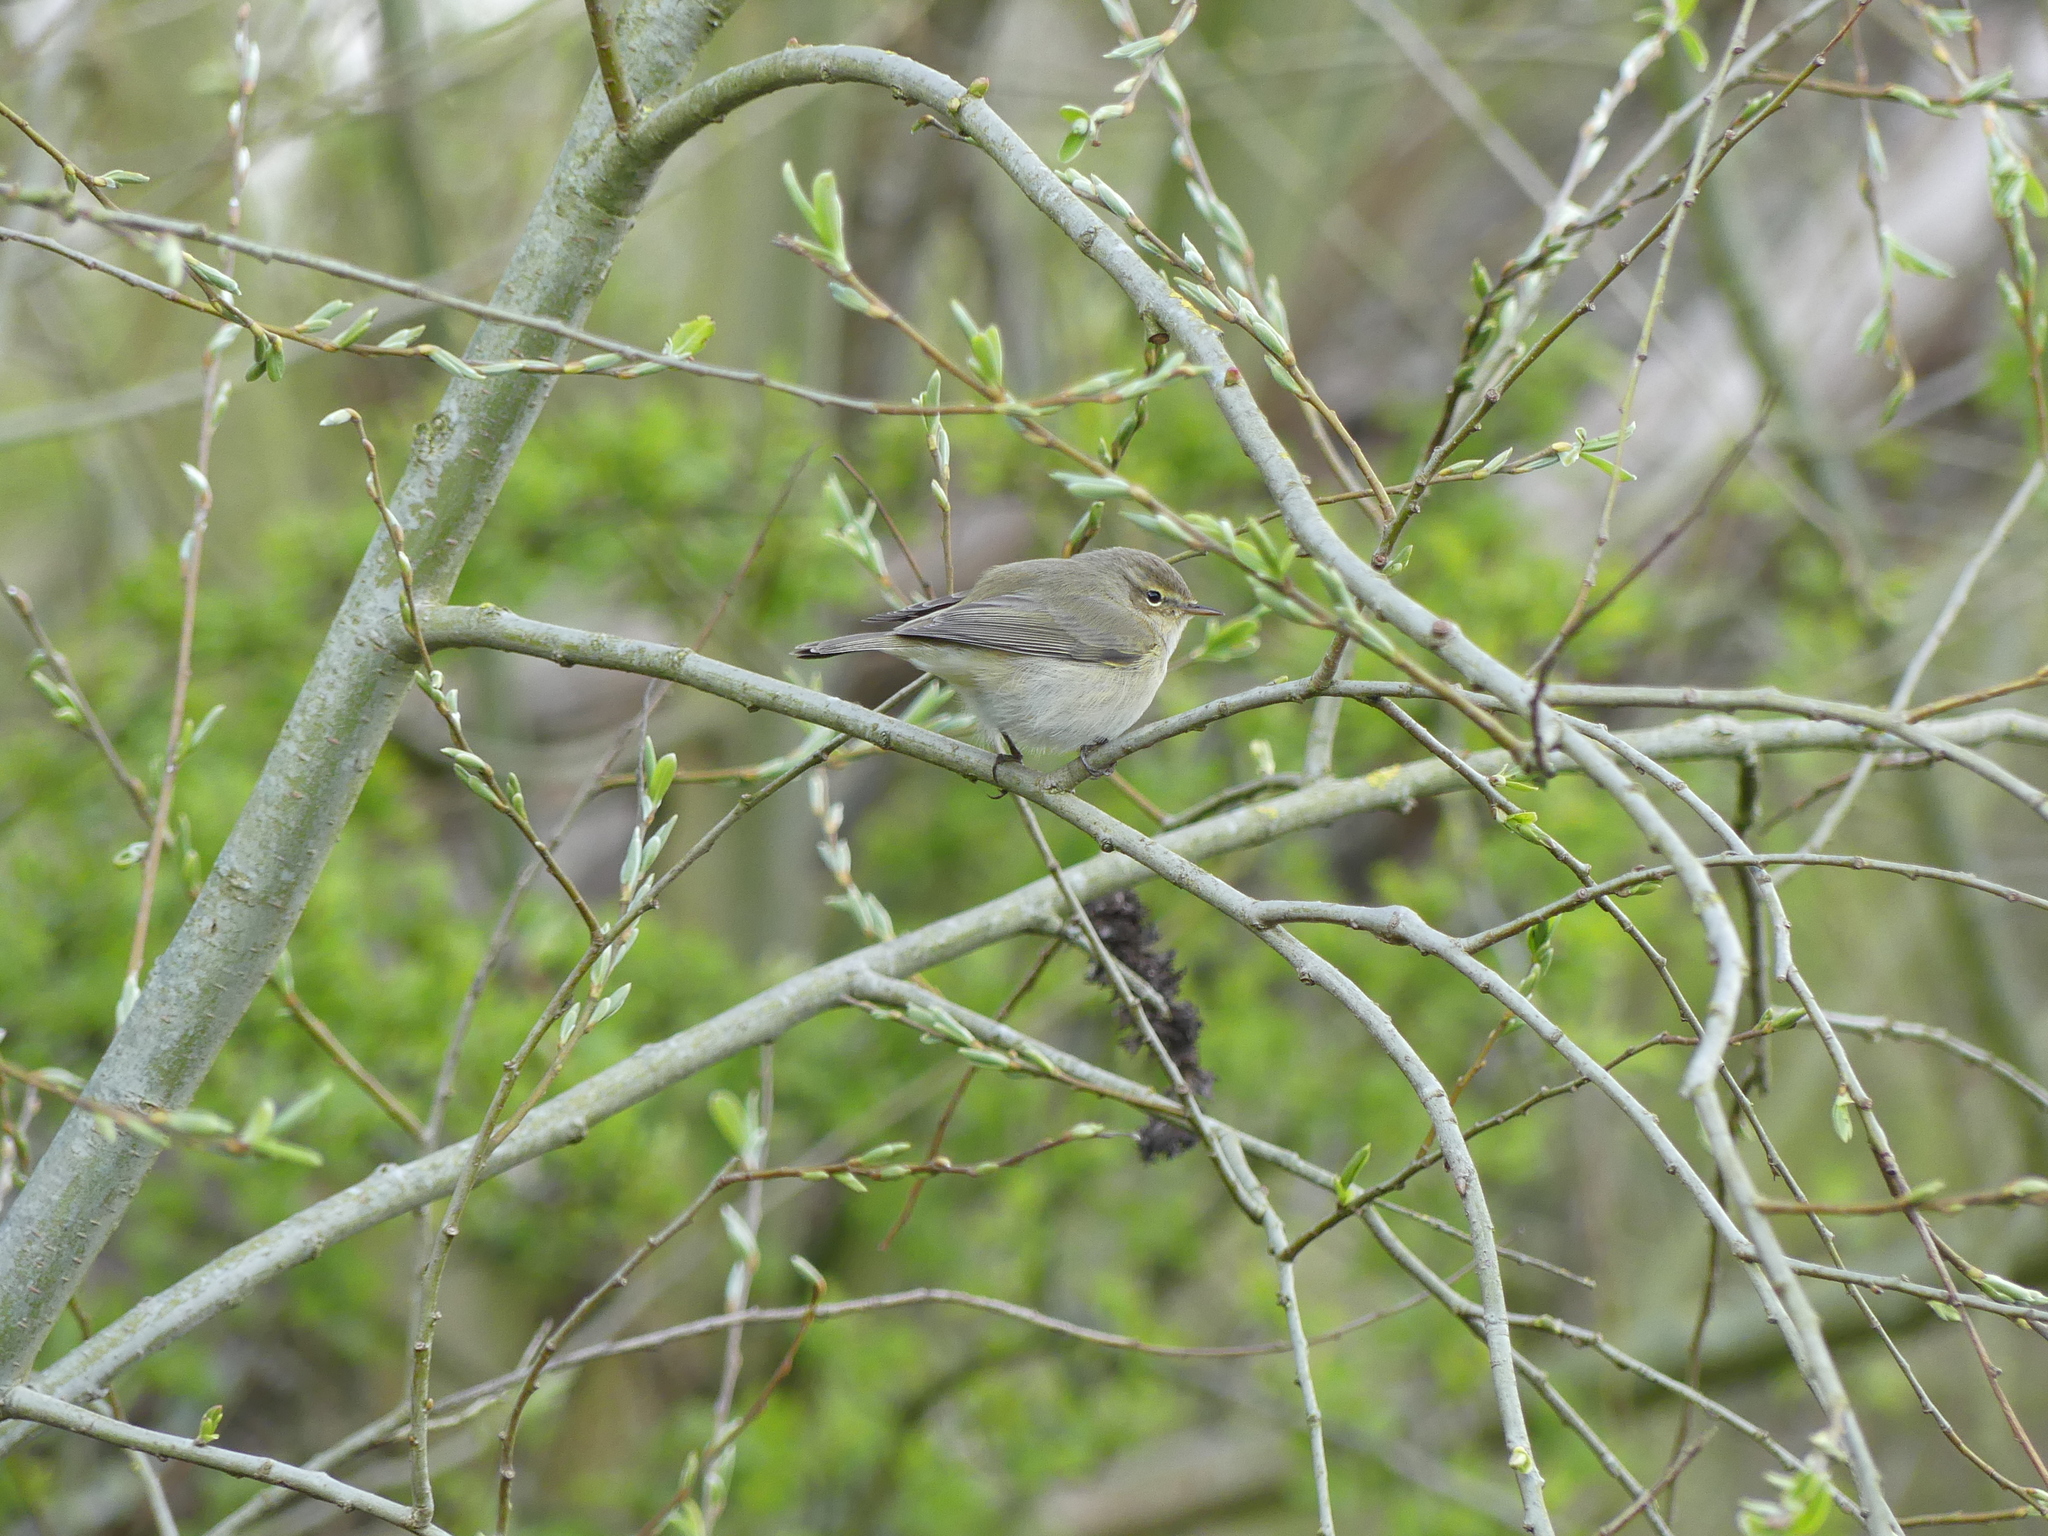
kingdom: Animalia
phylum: Chordata
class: Aves
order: Passeriformes
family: Phylloscopidae
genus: Phylloscopus
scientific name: Phylloscopus collybita
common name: Common chiffchaff
